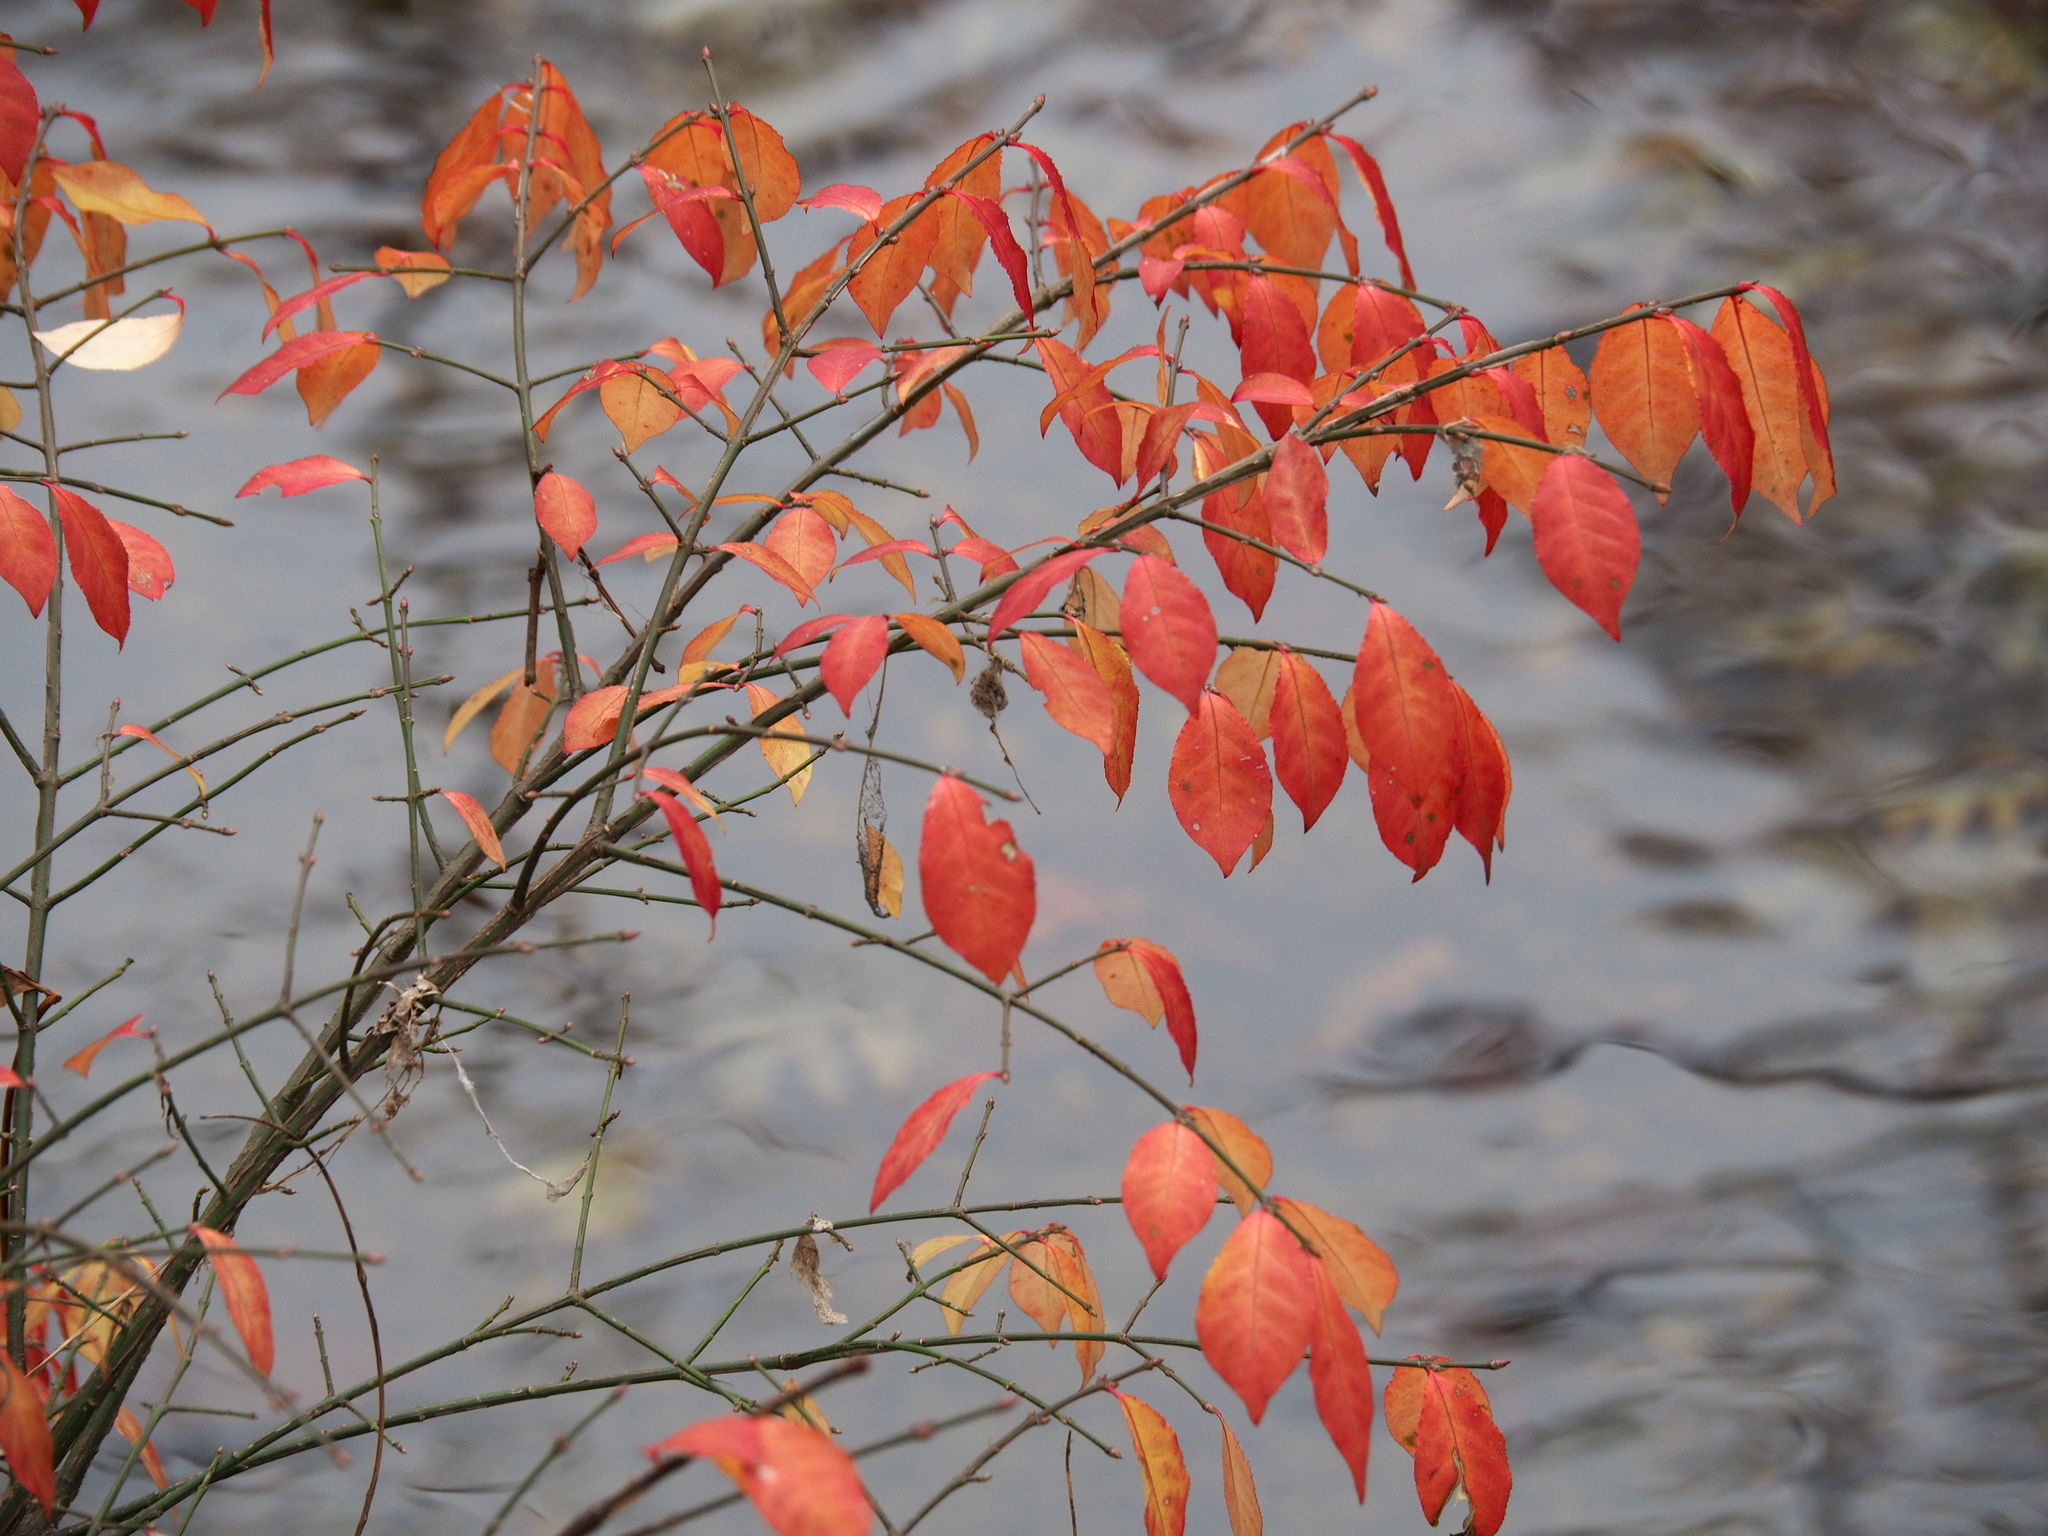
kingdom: Plantae
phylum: Tracheophyta
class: Magnoliopsida
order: Celastrales
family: Celastraceae
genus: Euonymus
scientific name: Euonymus alatus
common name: Winged euonymus
